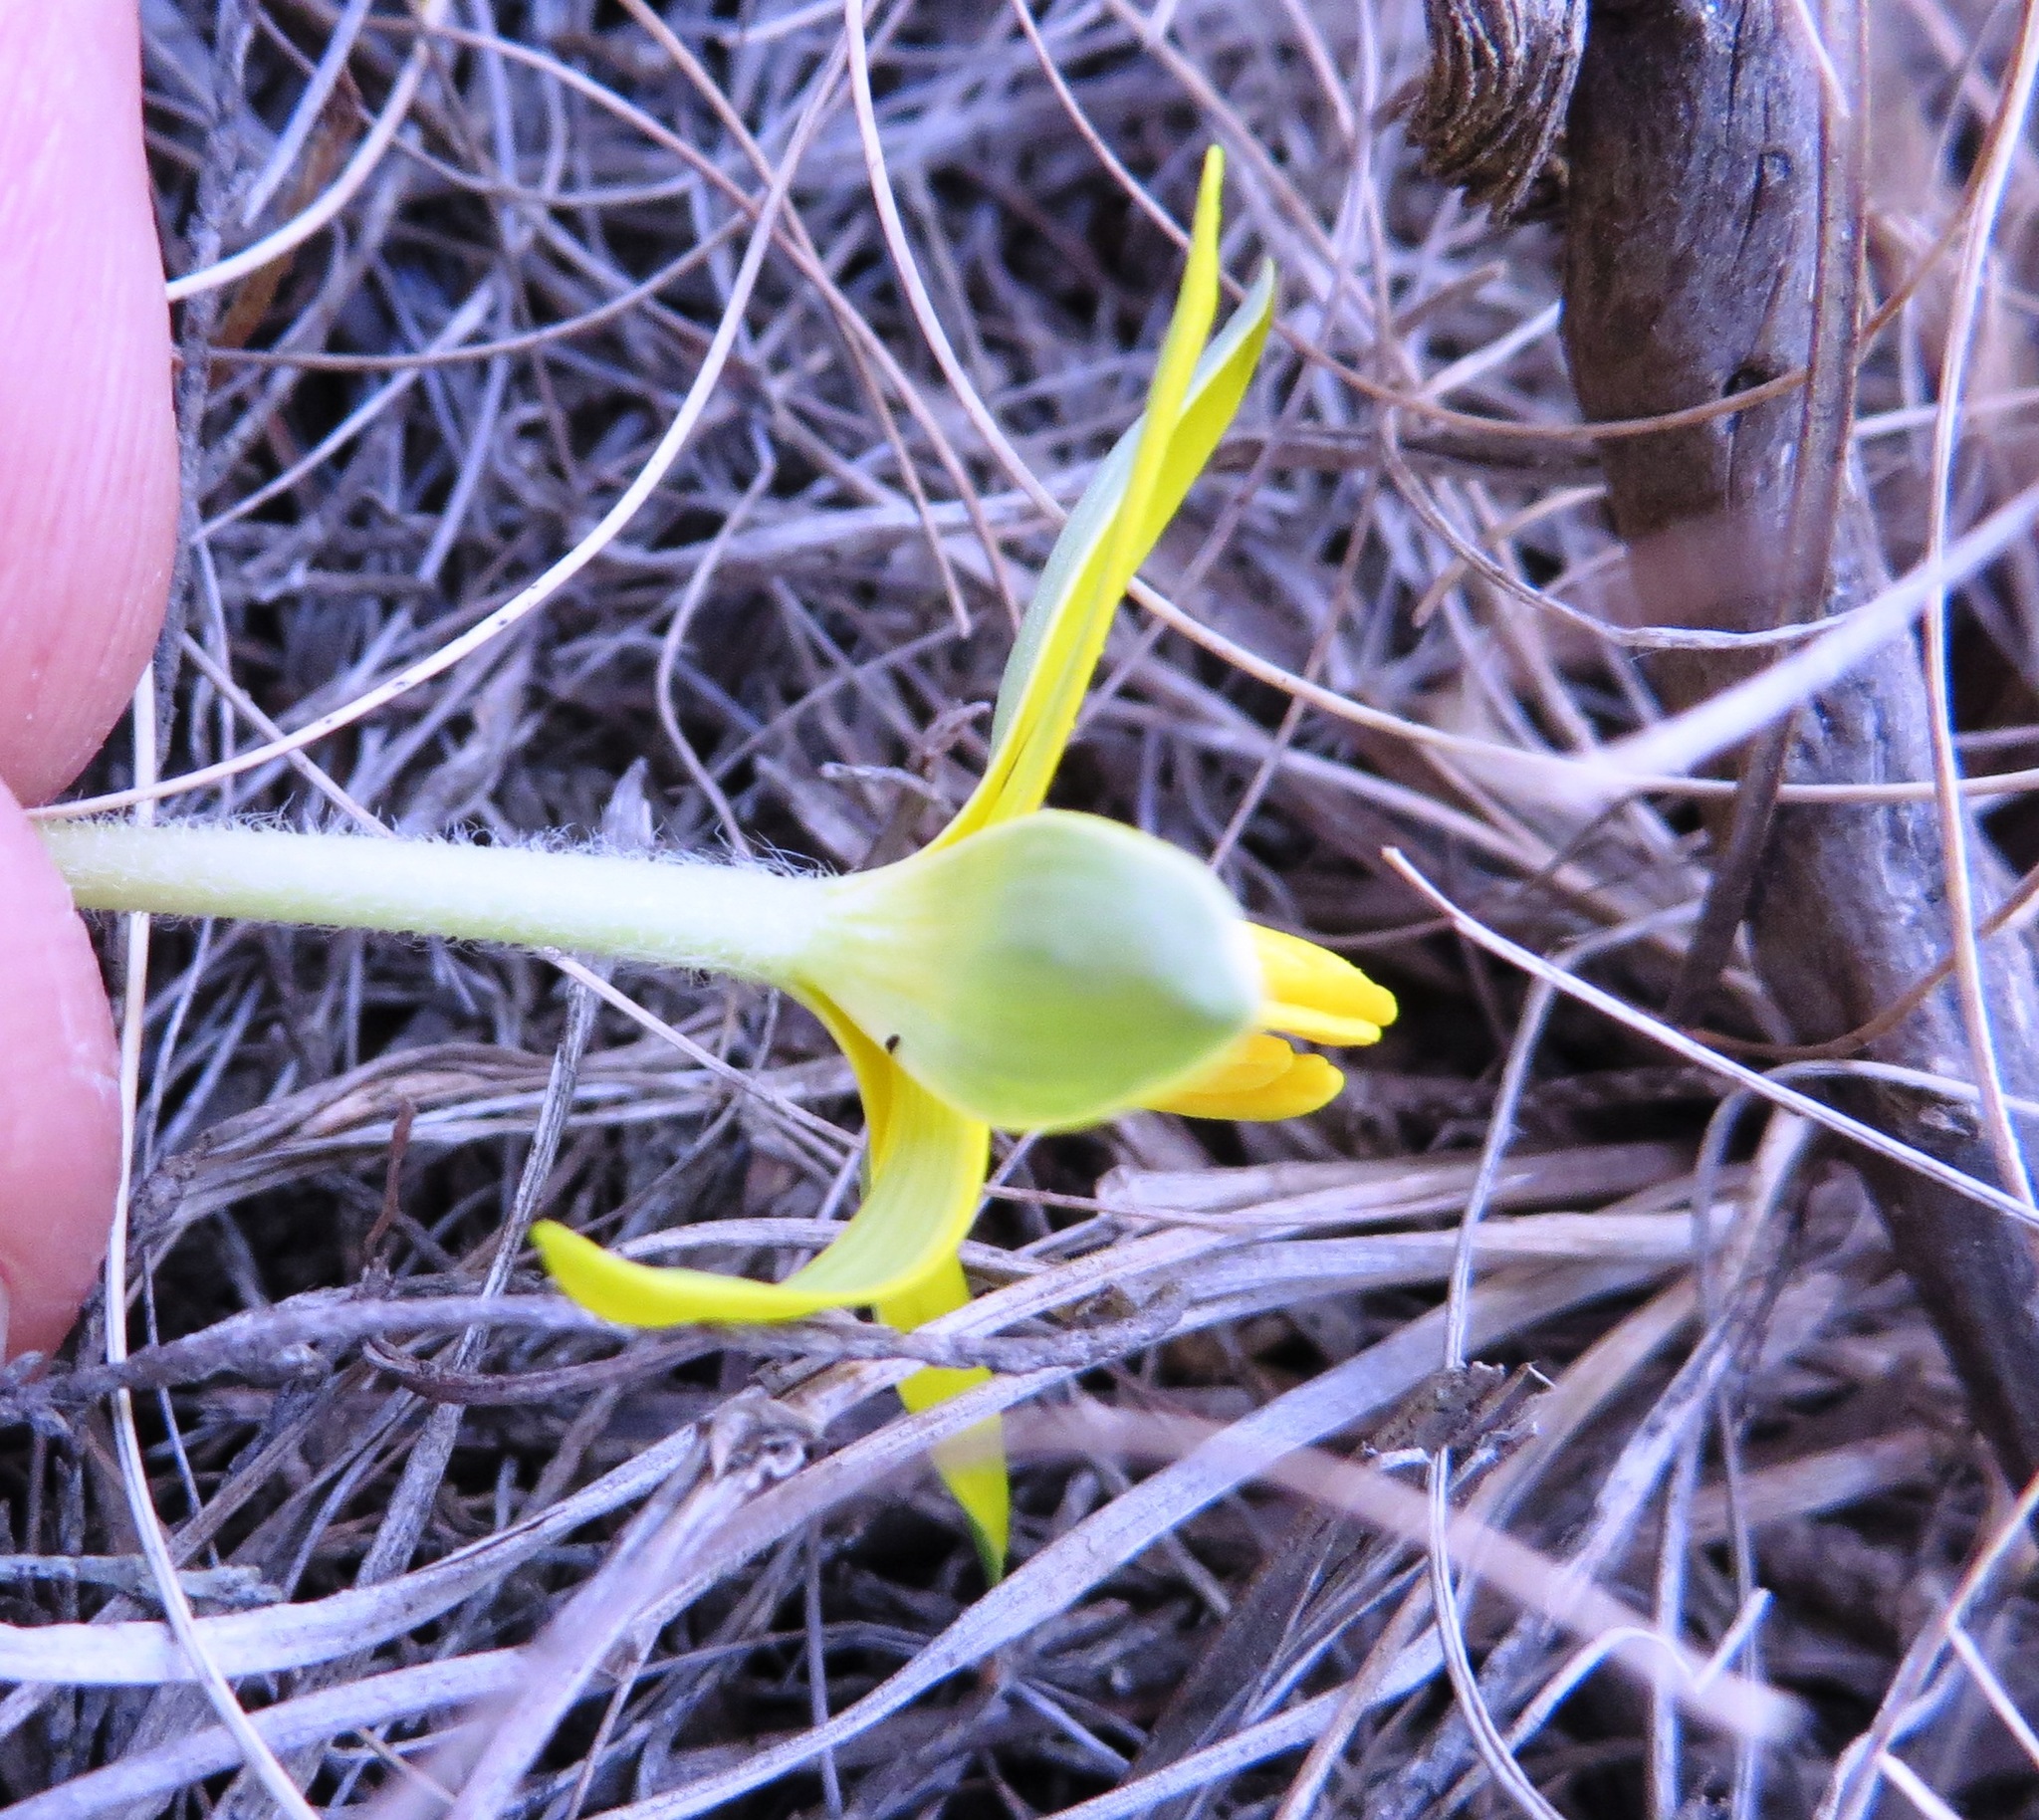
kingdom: Plantae
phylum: Tracheophyta
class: Liliopsida
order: Asparagales
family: Hypoxidaceae
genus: Empodium
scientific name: Empodium plicatum
